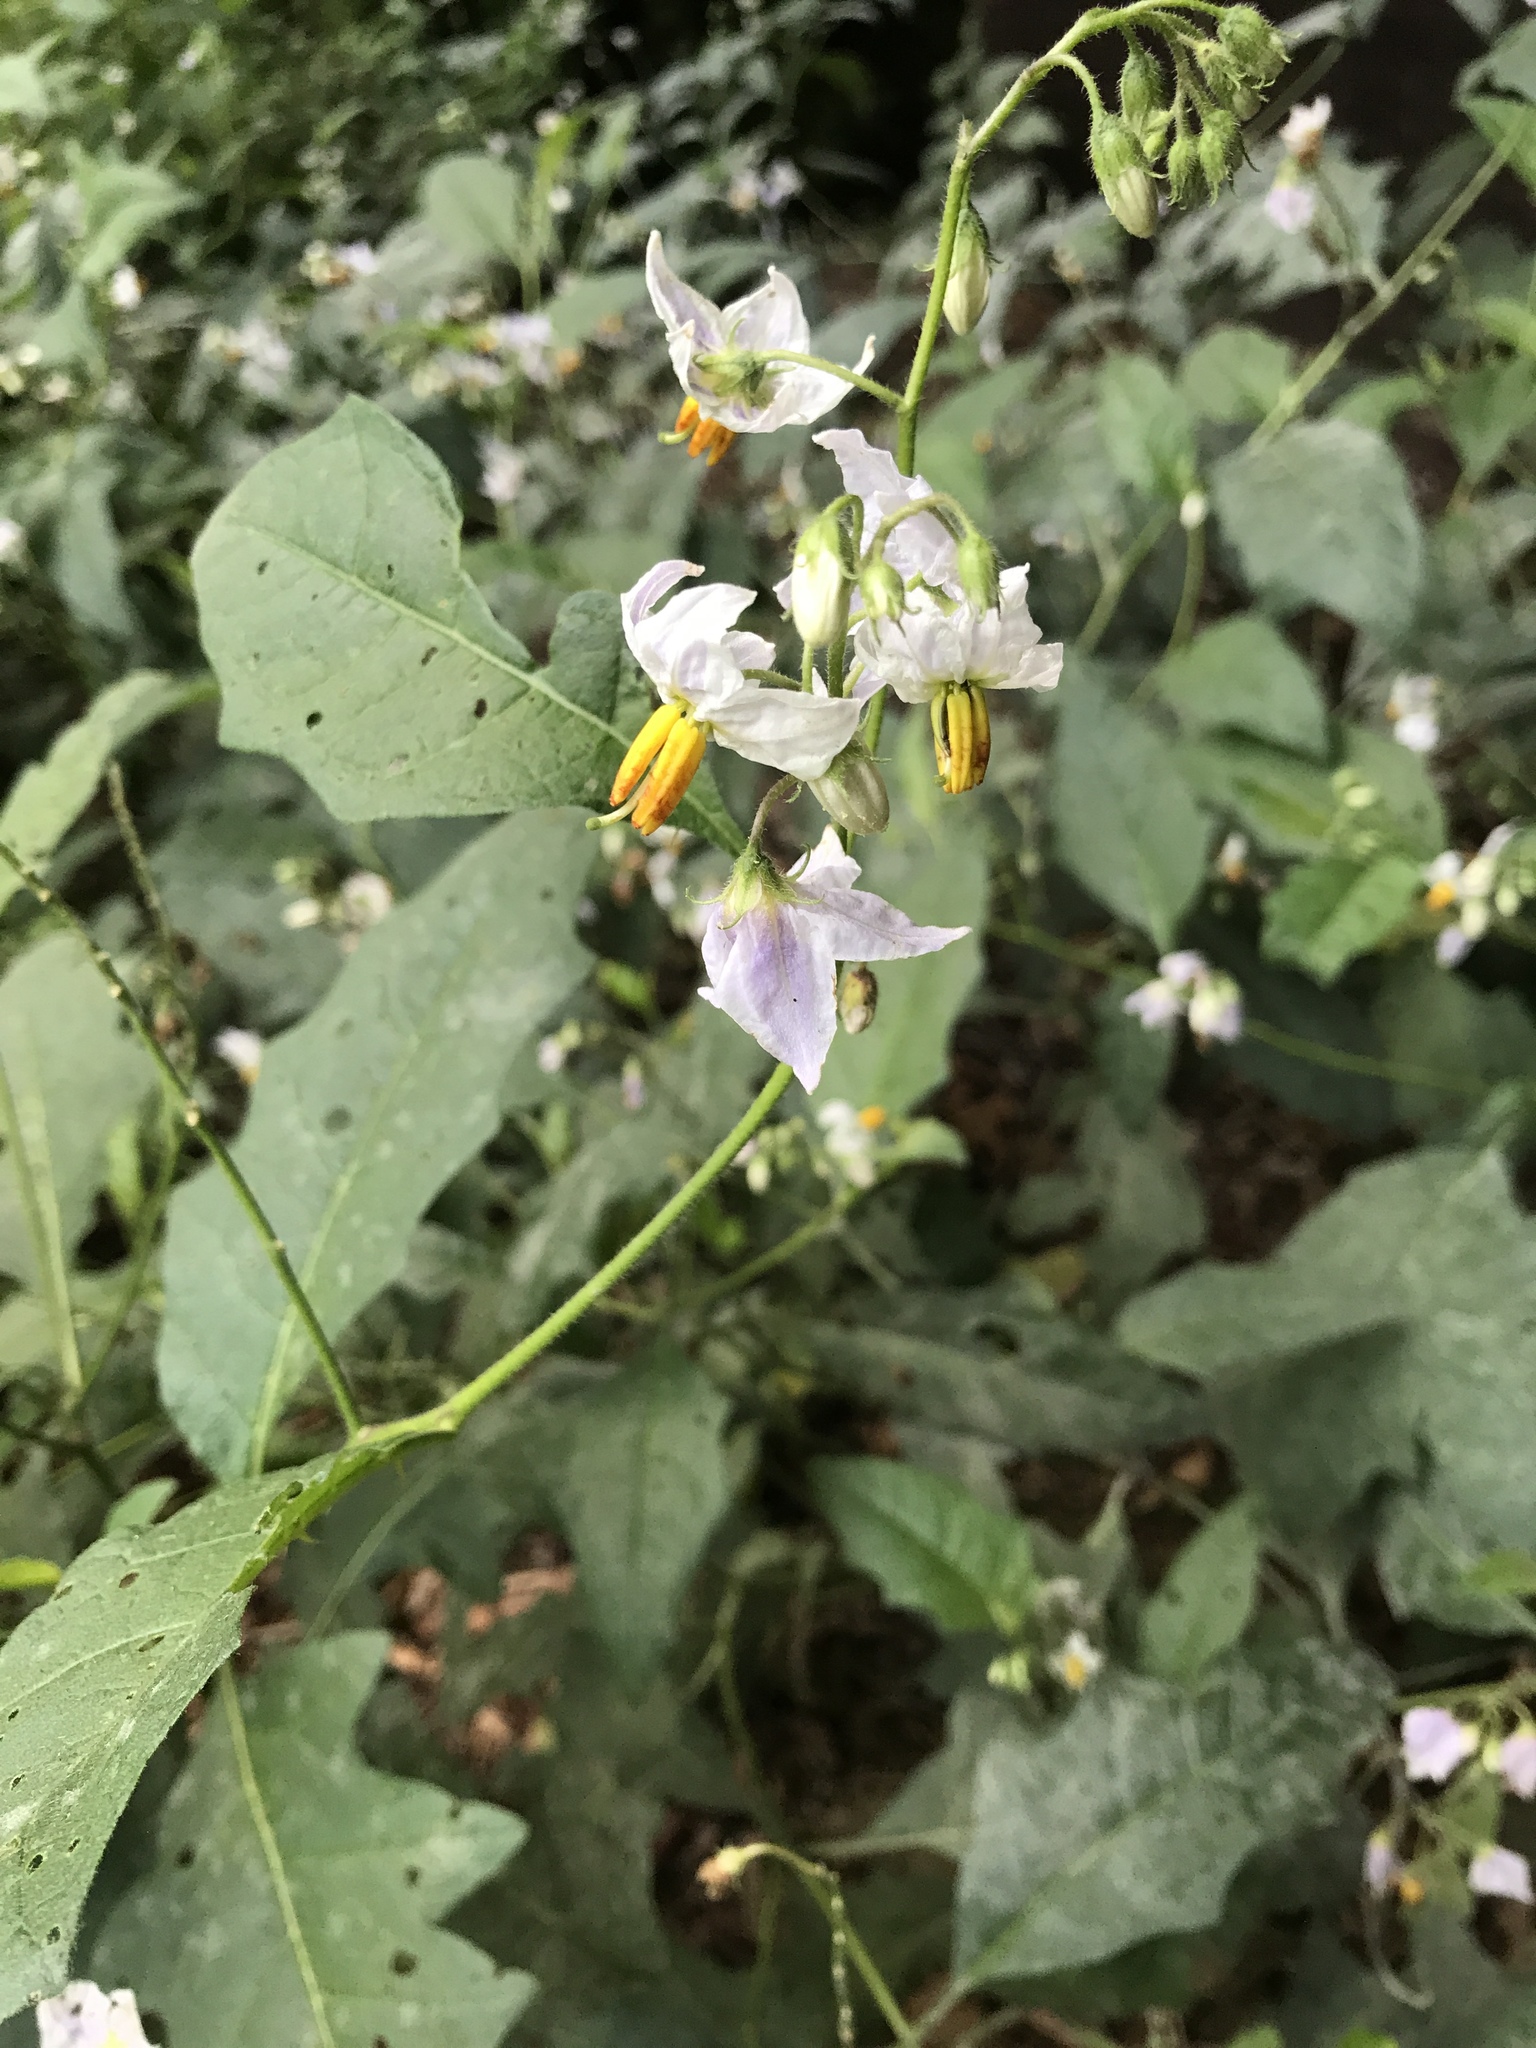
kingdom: Plantae
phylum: Tracheophyta
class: Magnoliopsida
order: Solanales
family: Solanaceae
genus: Solanum
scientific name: Solanum carolinense
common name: Horse-nettle
